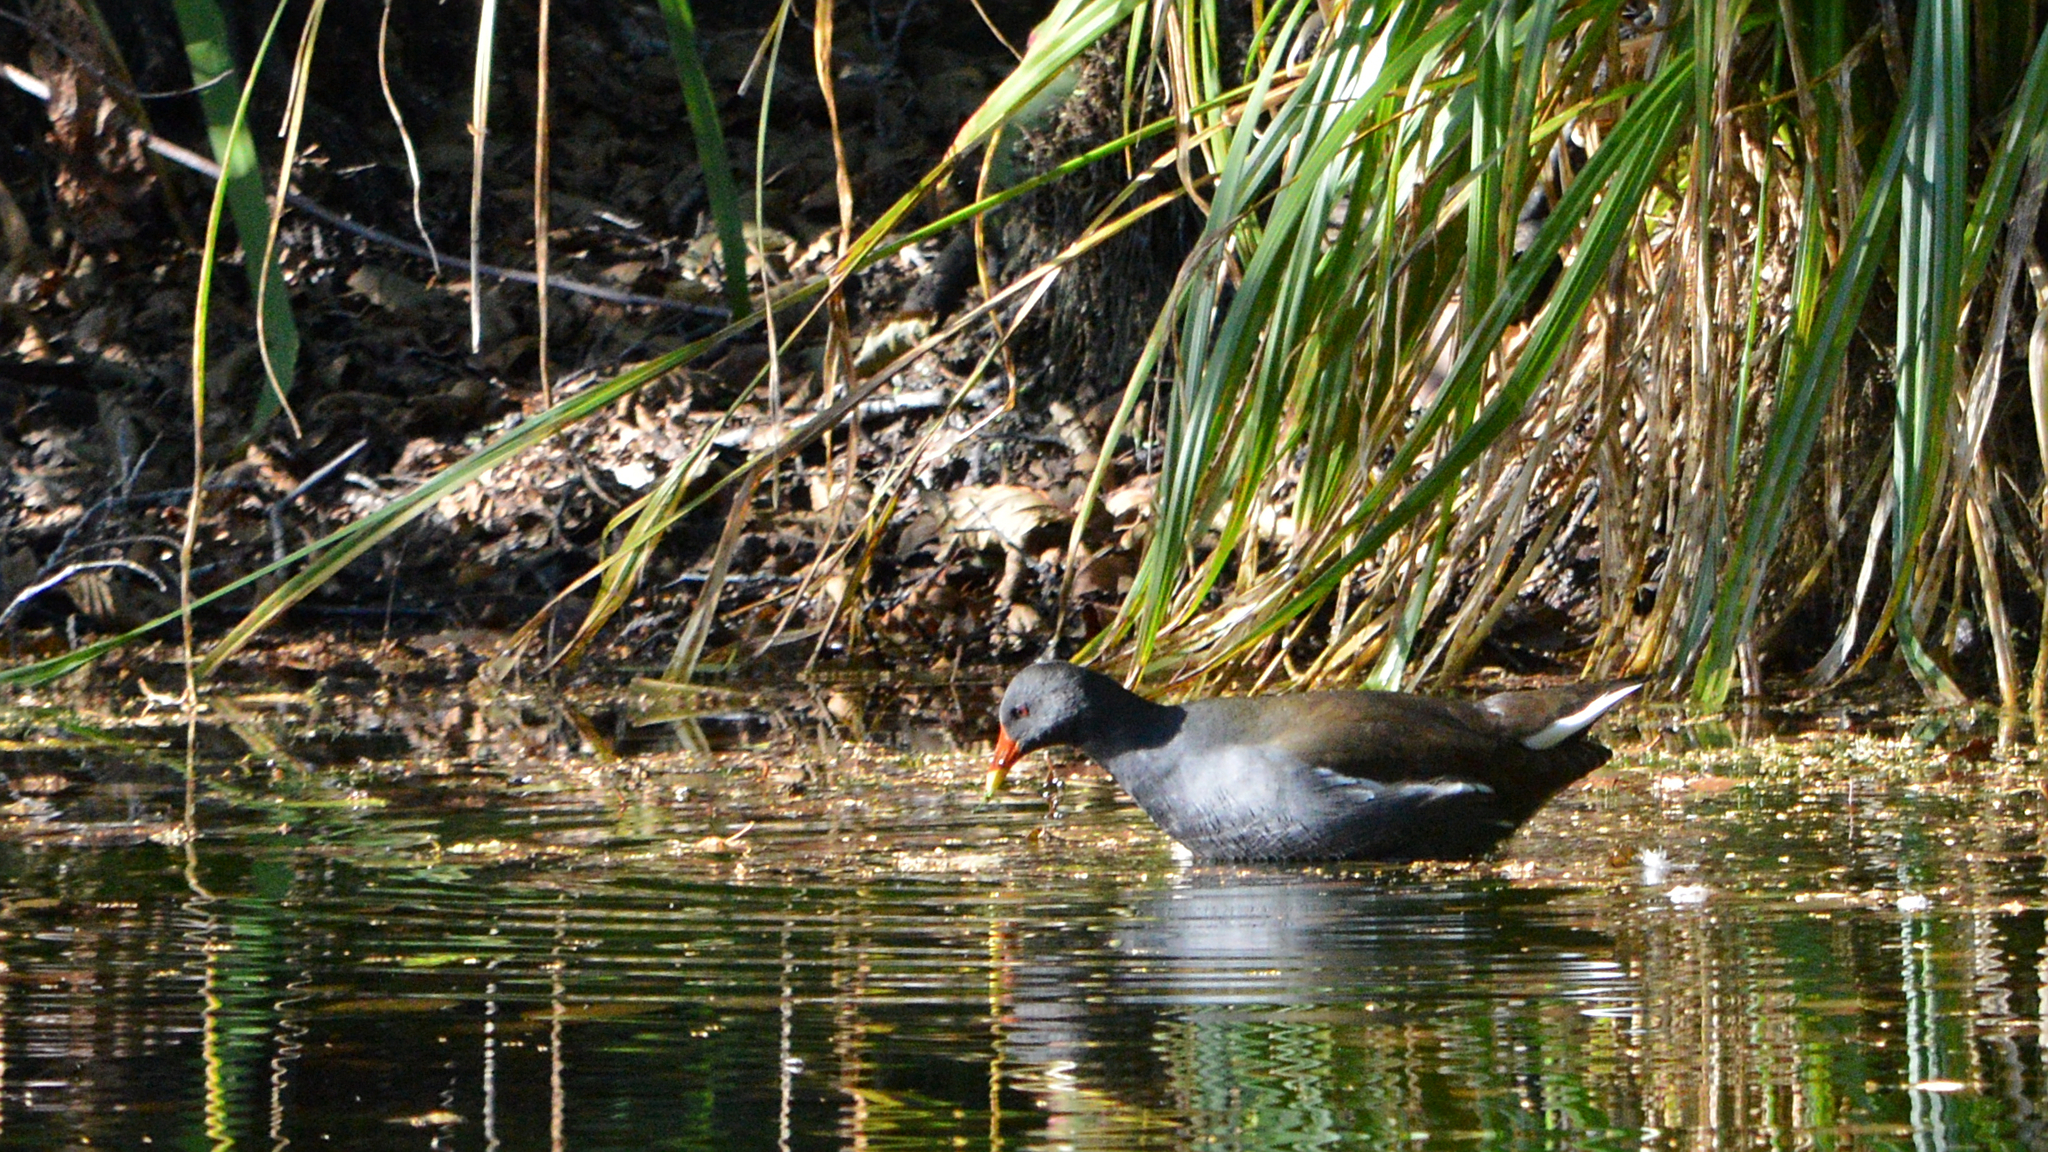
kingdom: Animalia
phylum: Chordata
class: Aves
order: Gruiformes
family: Rallidae
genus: Gallinula
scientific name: Gallinula chloropus
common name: Common moorhen
